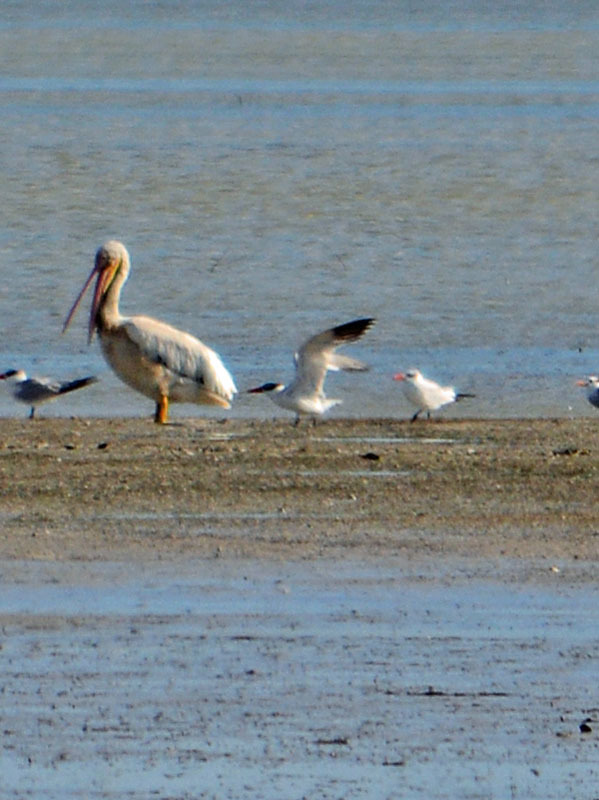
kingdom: Animalia
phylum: Chordata
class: Aves
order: Charadriiformes
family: Laridae
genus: Hydroprogne
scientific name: Hydroprogne caspia
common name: Caspian tern
